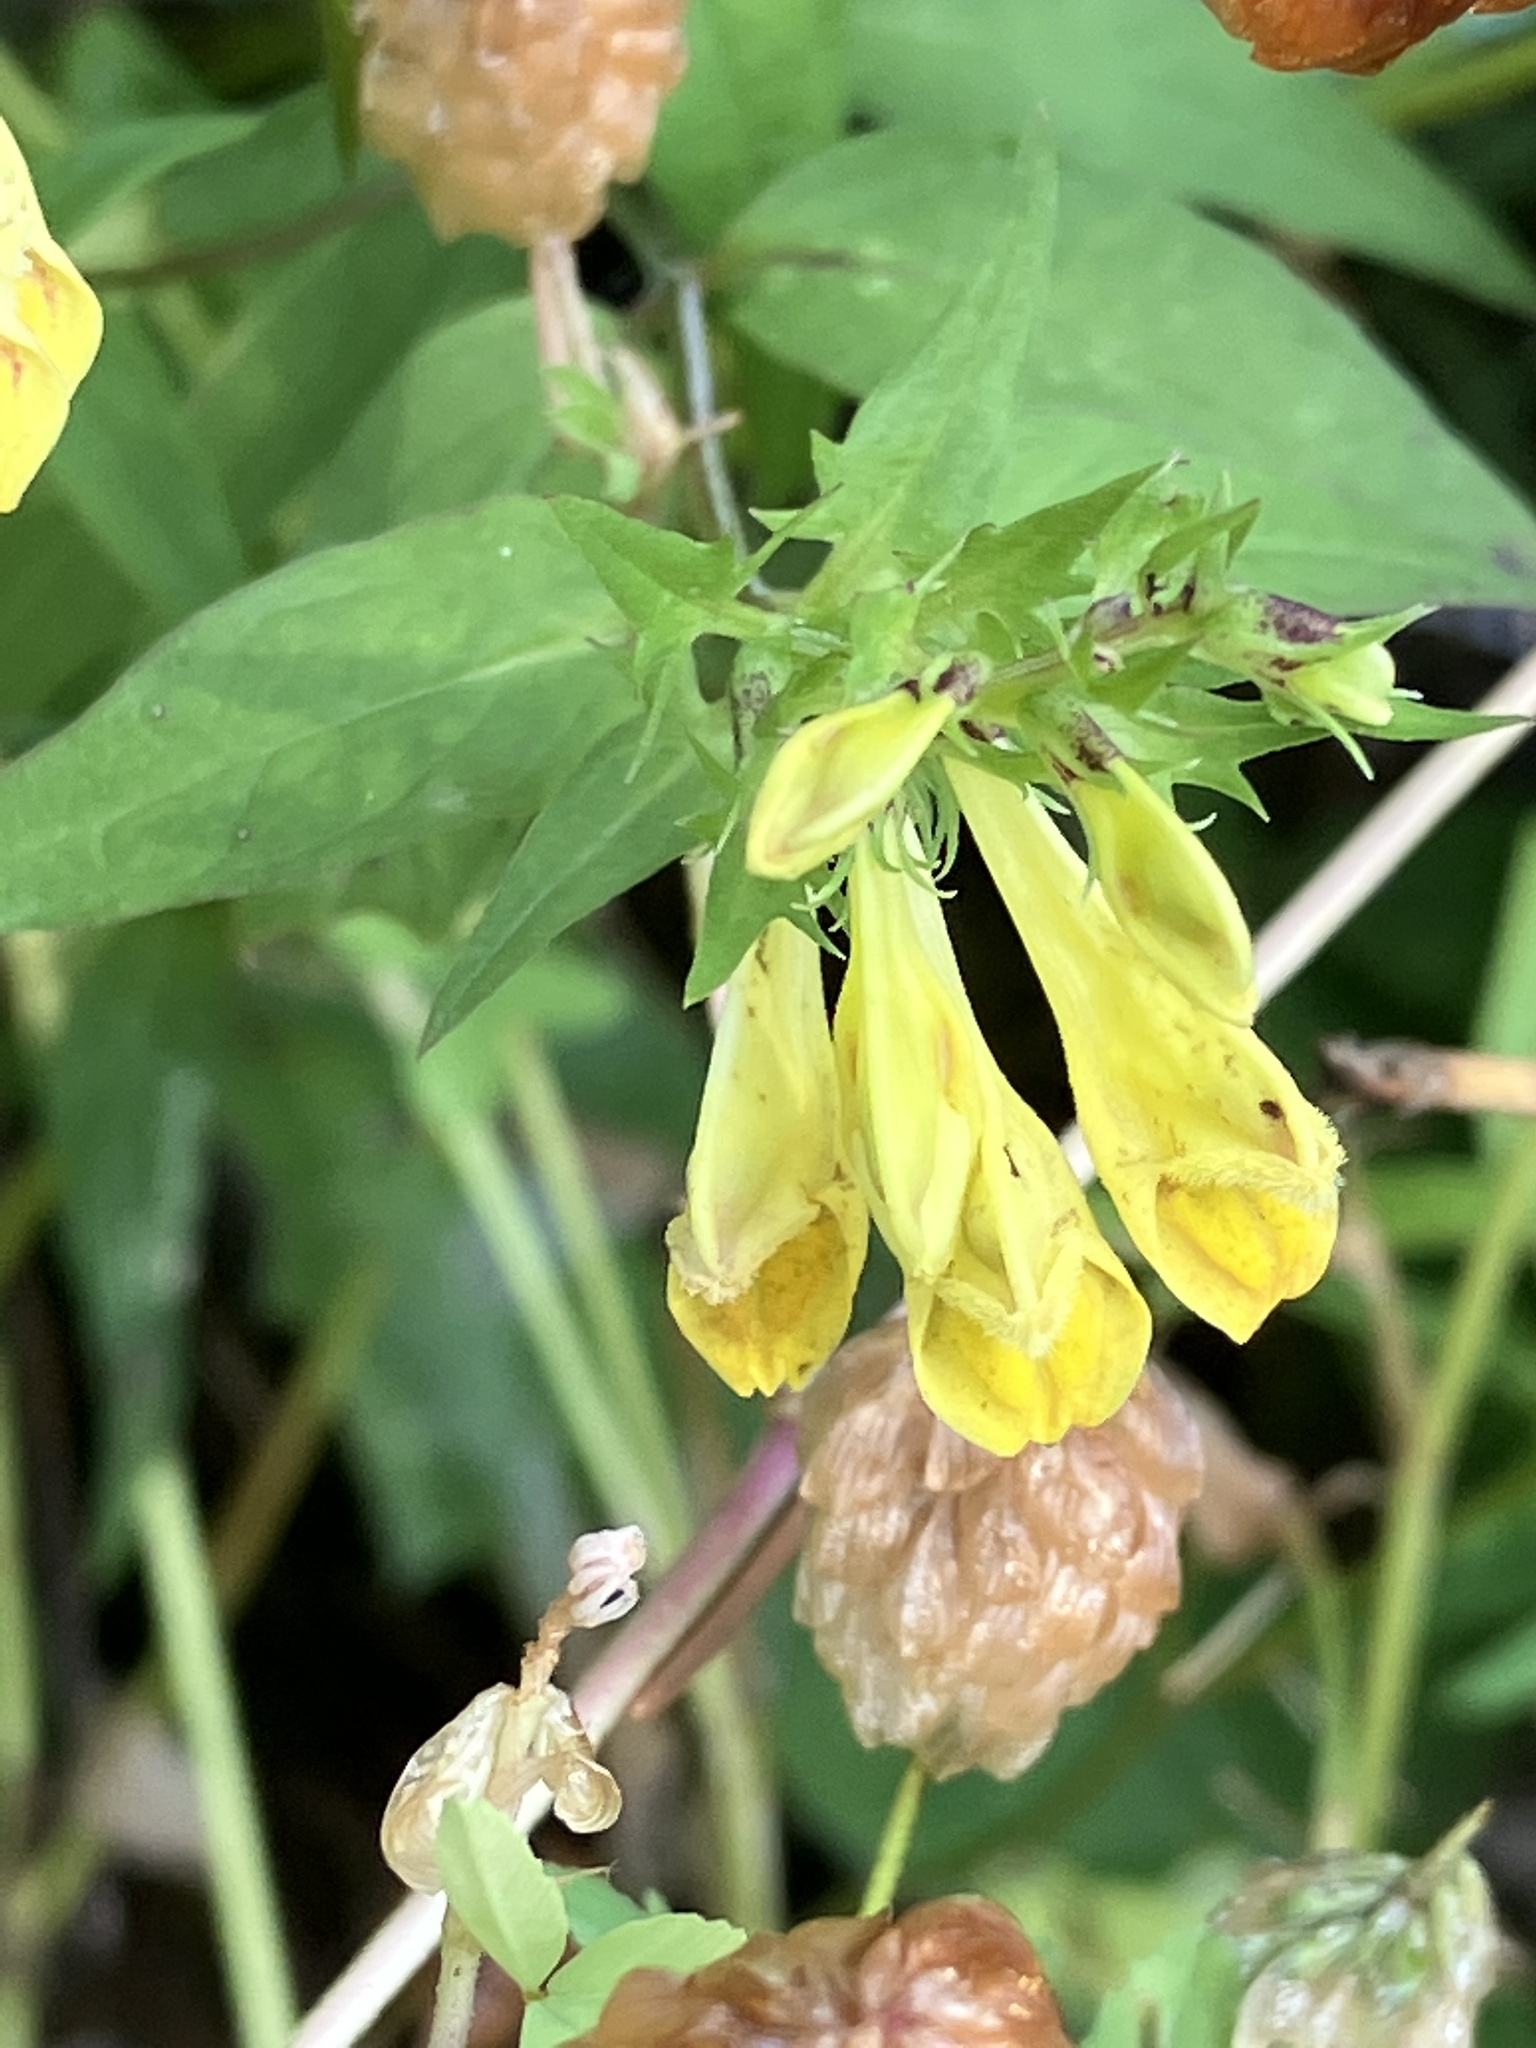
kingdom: Plantae
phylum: Tracheophyta
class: Magnoliopsida
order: Lamiales
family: Orobanchaceae
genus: Melampyrum
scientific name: Melampyrum pratense
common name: Common cow-wheat
